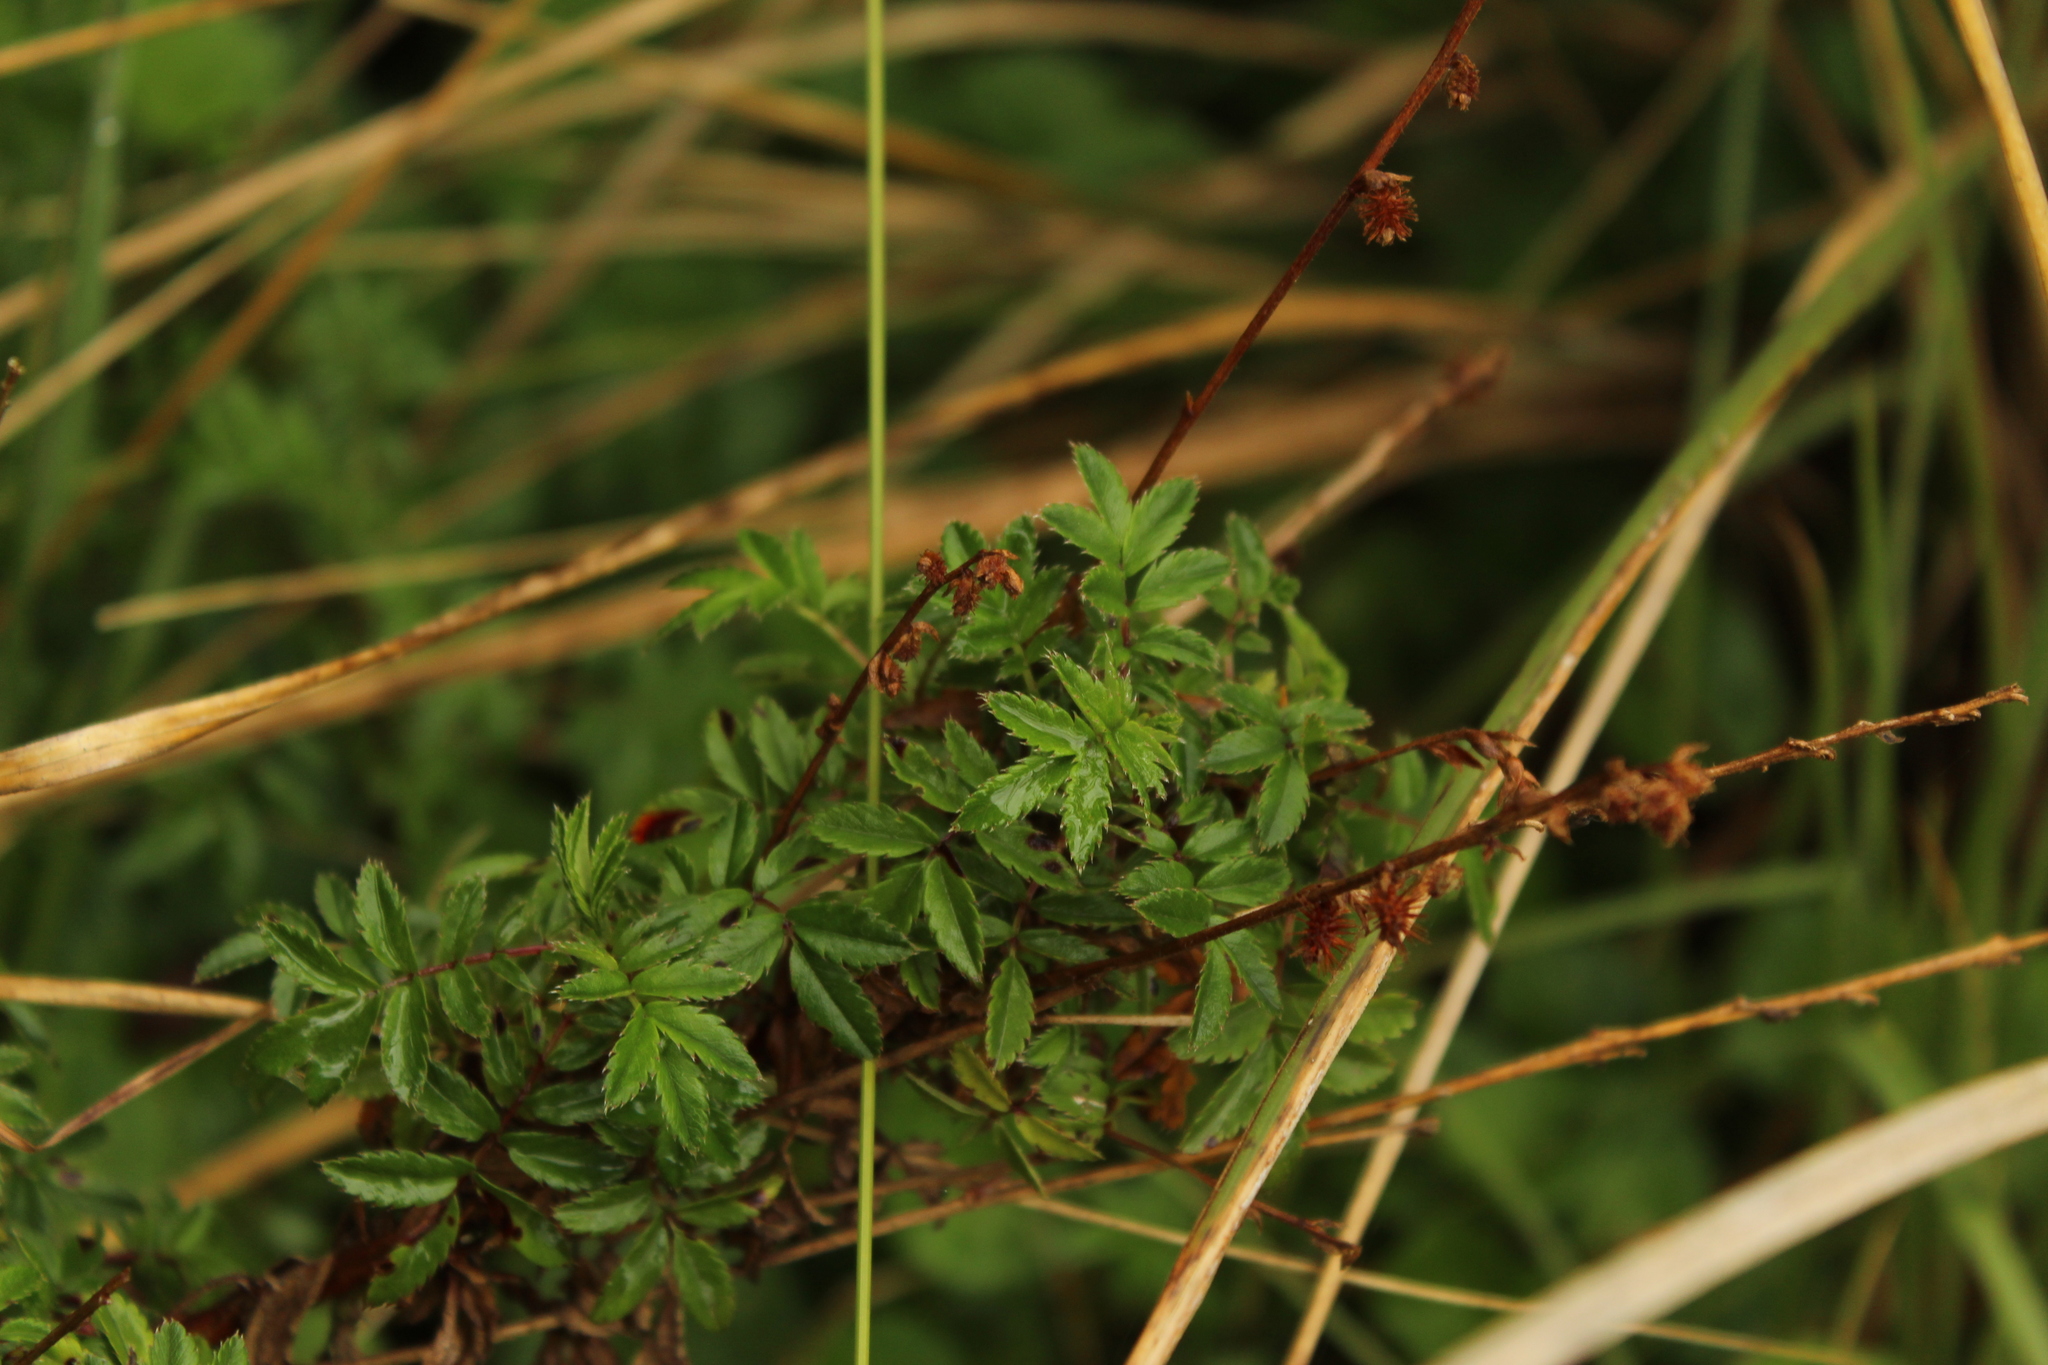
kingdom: Plantae
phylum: Tracheophyta
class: Magnoliopsida
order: Rosales
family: Rosaceae
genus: Acaena
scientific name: Acaena elongata
